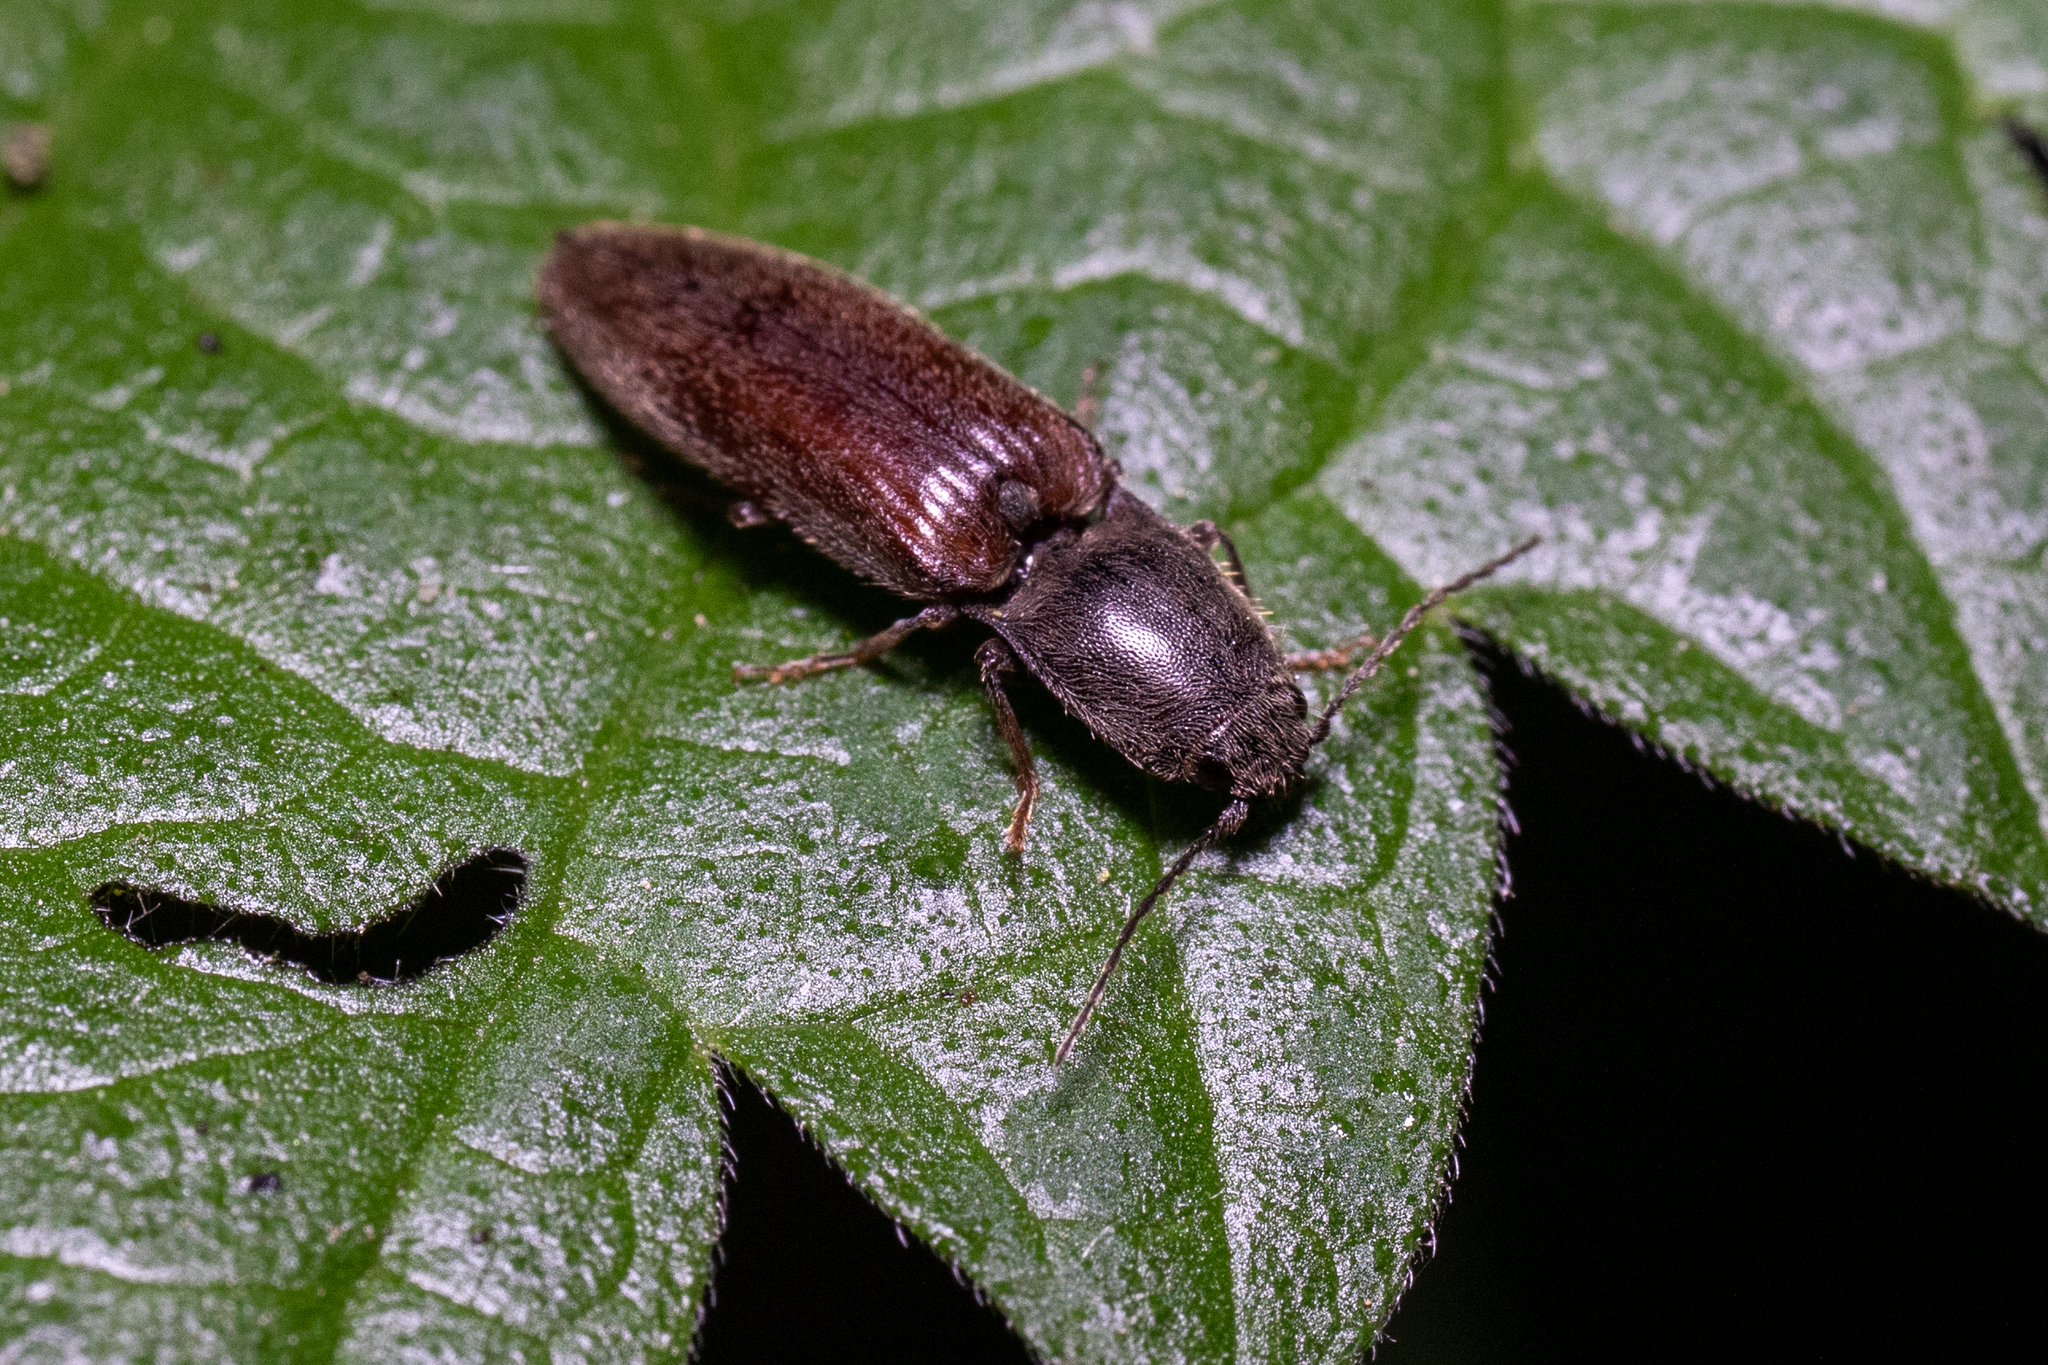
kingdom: Animalia
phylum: Arthropoda
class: Insecta
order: Coleoptera
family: Elateridae
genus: Athous
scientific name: Athous haemorrhoidalis
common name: Red-brown click beetle
